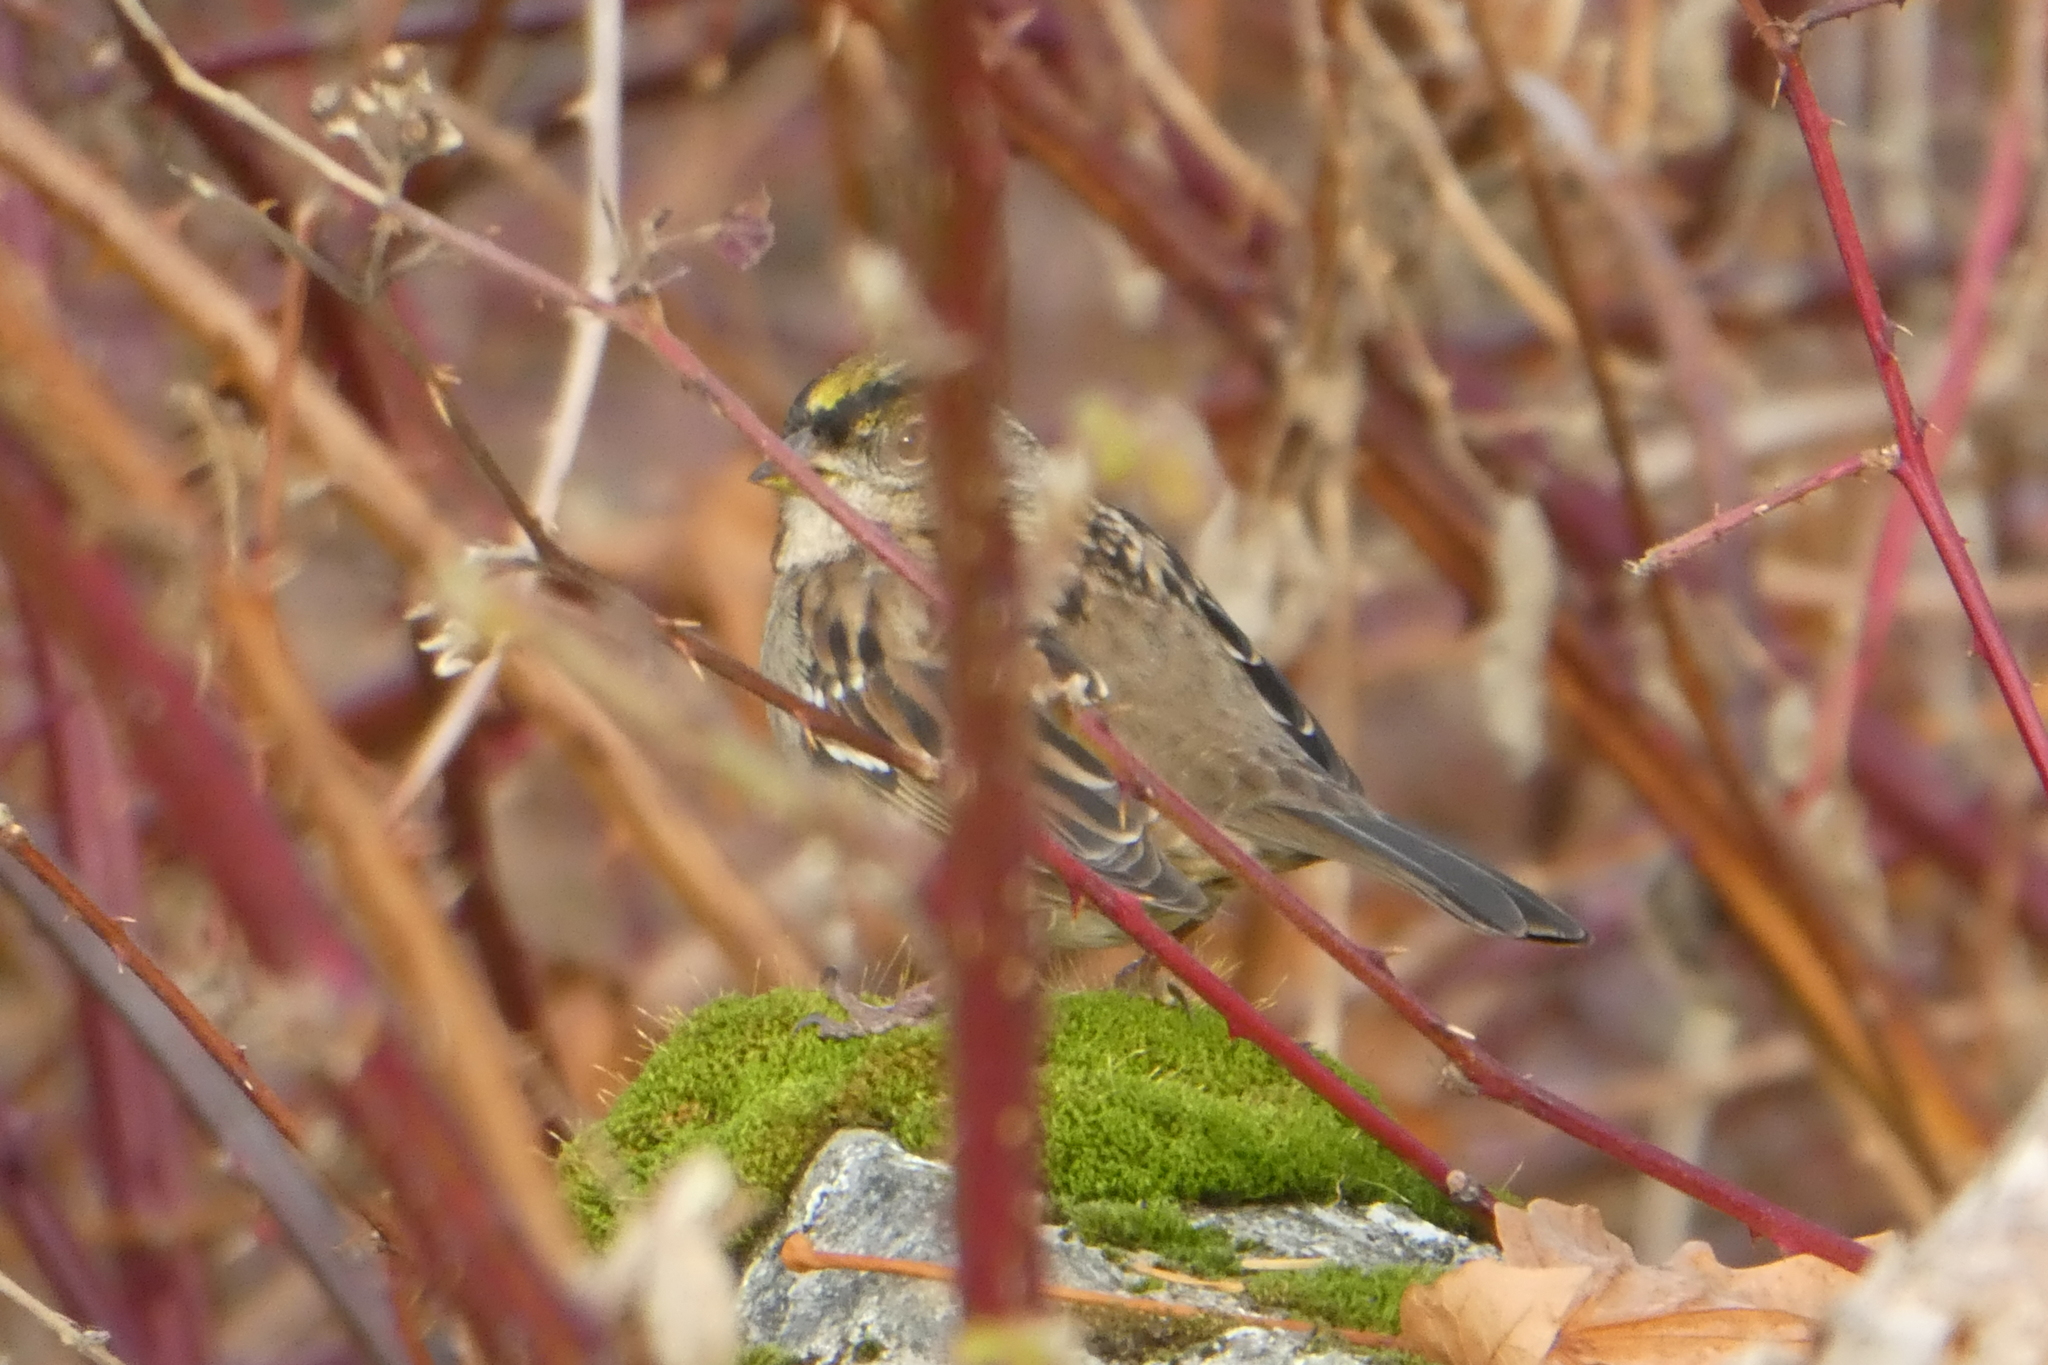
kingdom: Animalia
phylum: Chordata
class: Aves
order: Passeriformes
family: Passerellidae
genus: Zonotrichia
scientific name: Zonotrichia atricapilla
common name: Golden-crowned sparrow
